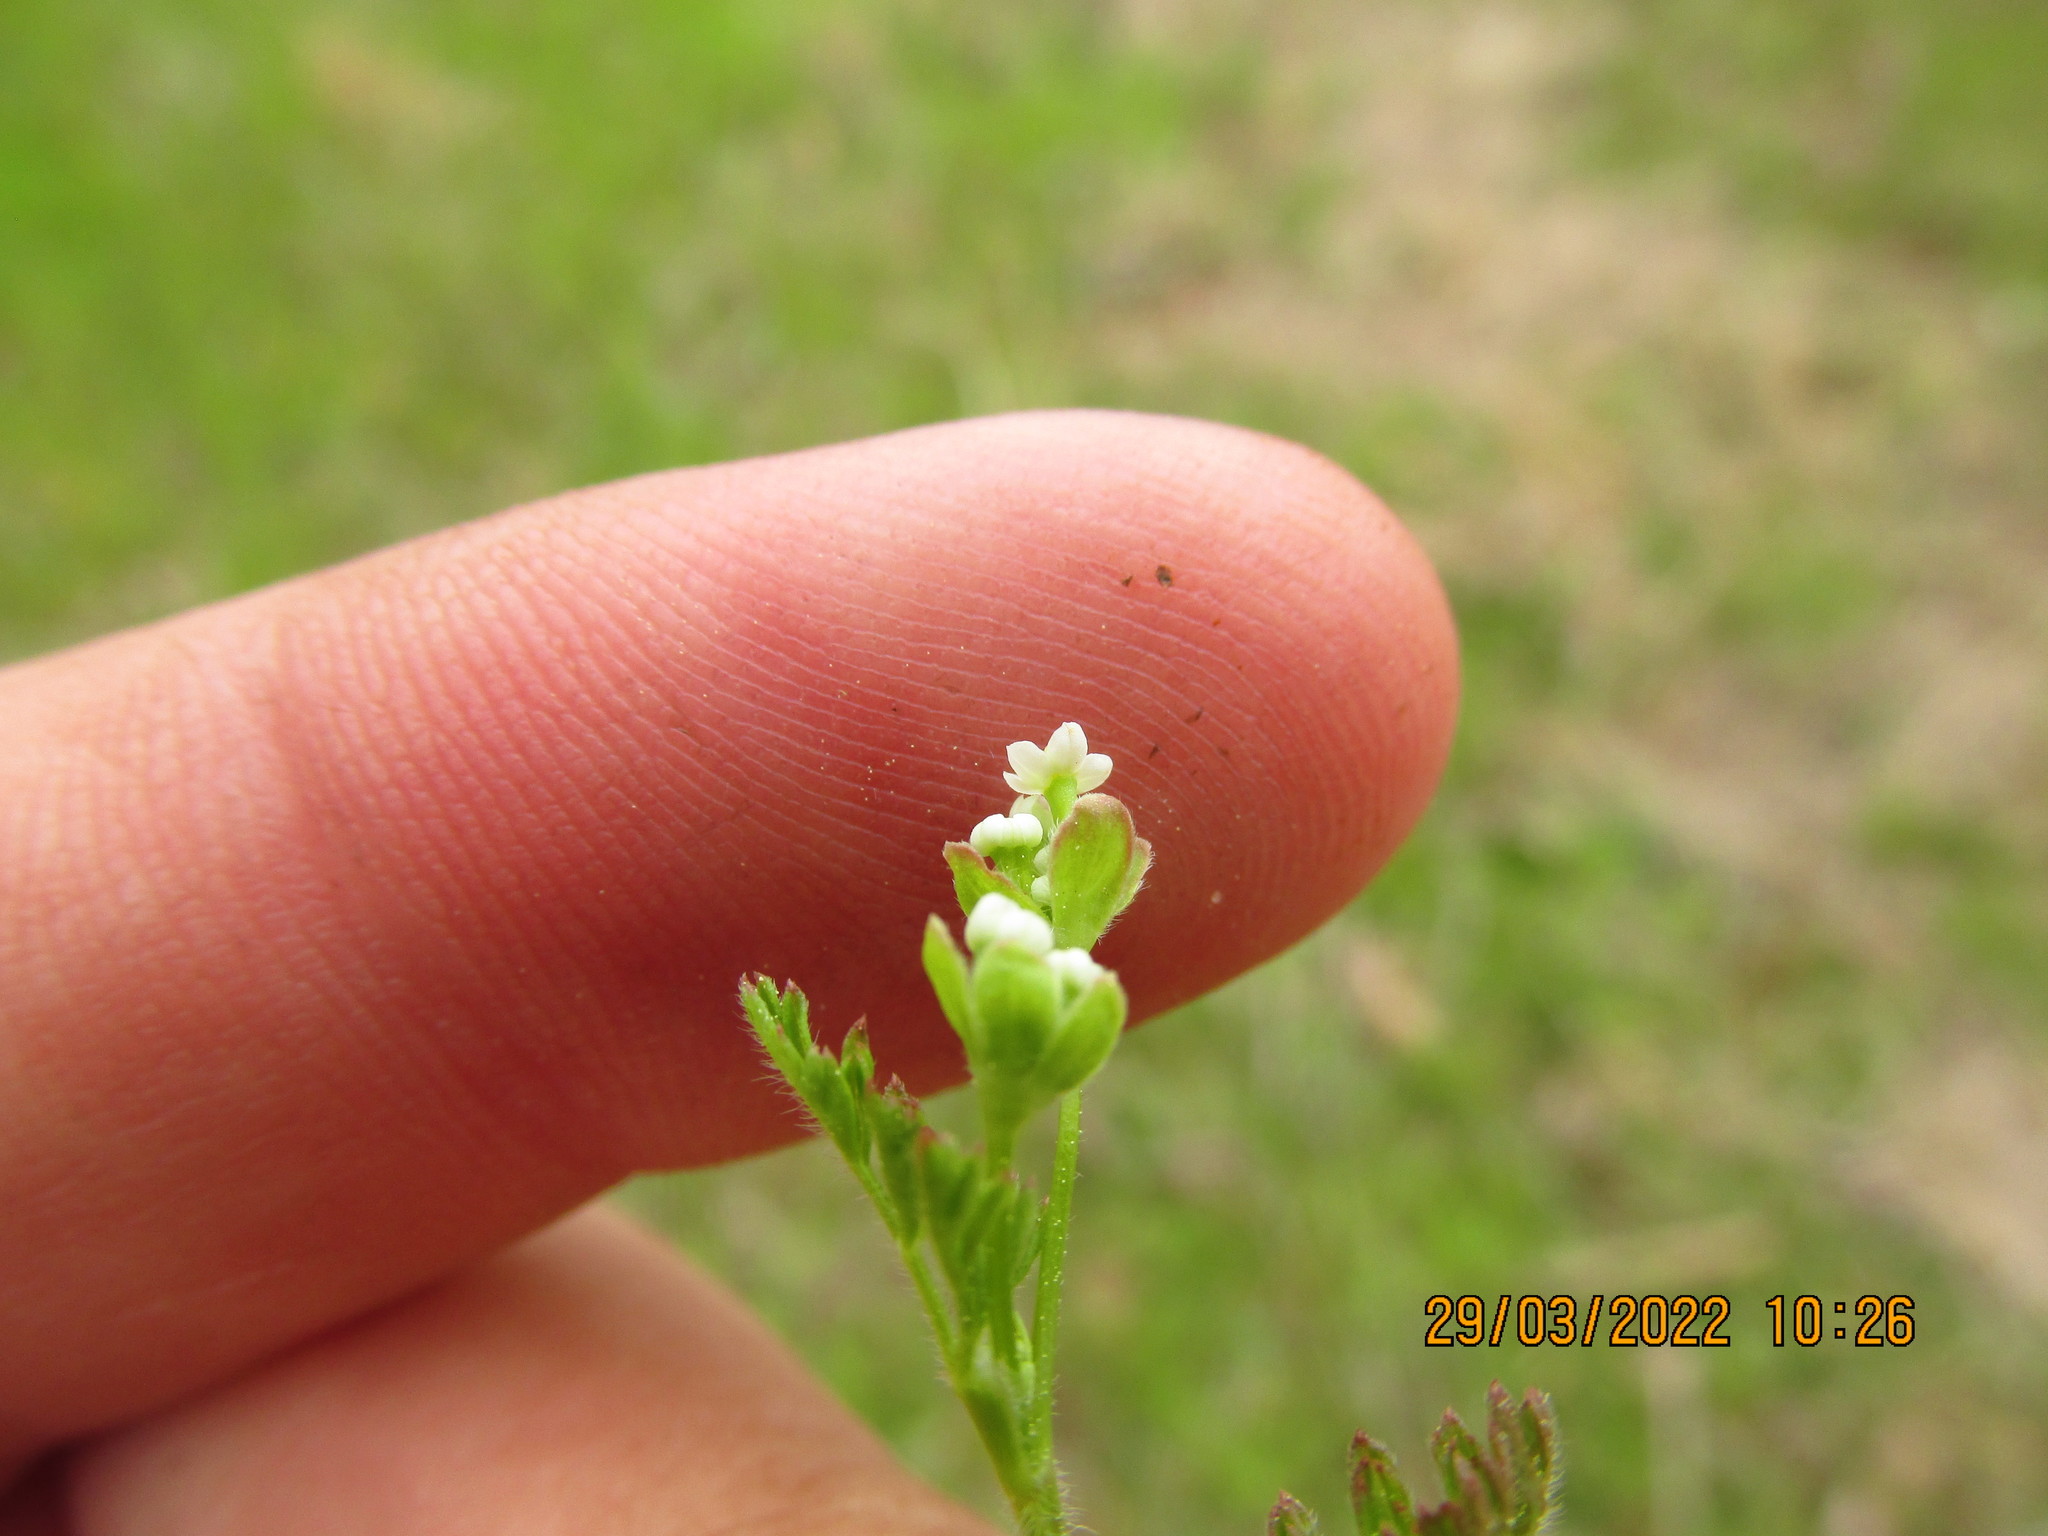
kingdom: Plantae
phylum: Tracheophyta
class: Magnoliopsida
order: Apiales
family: Apiaceae
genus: Chaerophyllum
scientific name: Chaerophyllum tainturieri
